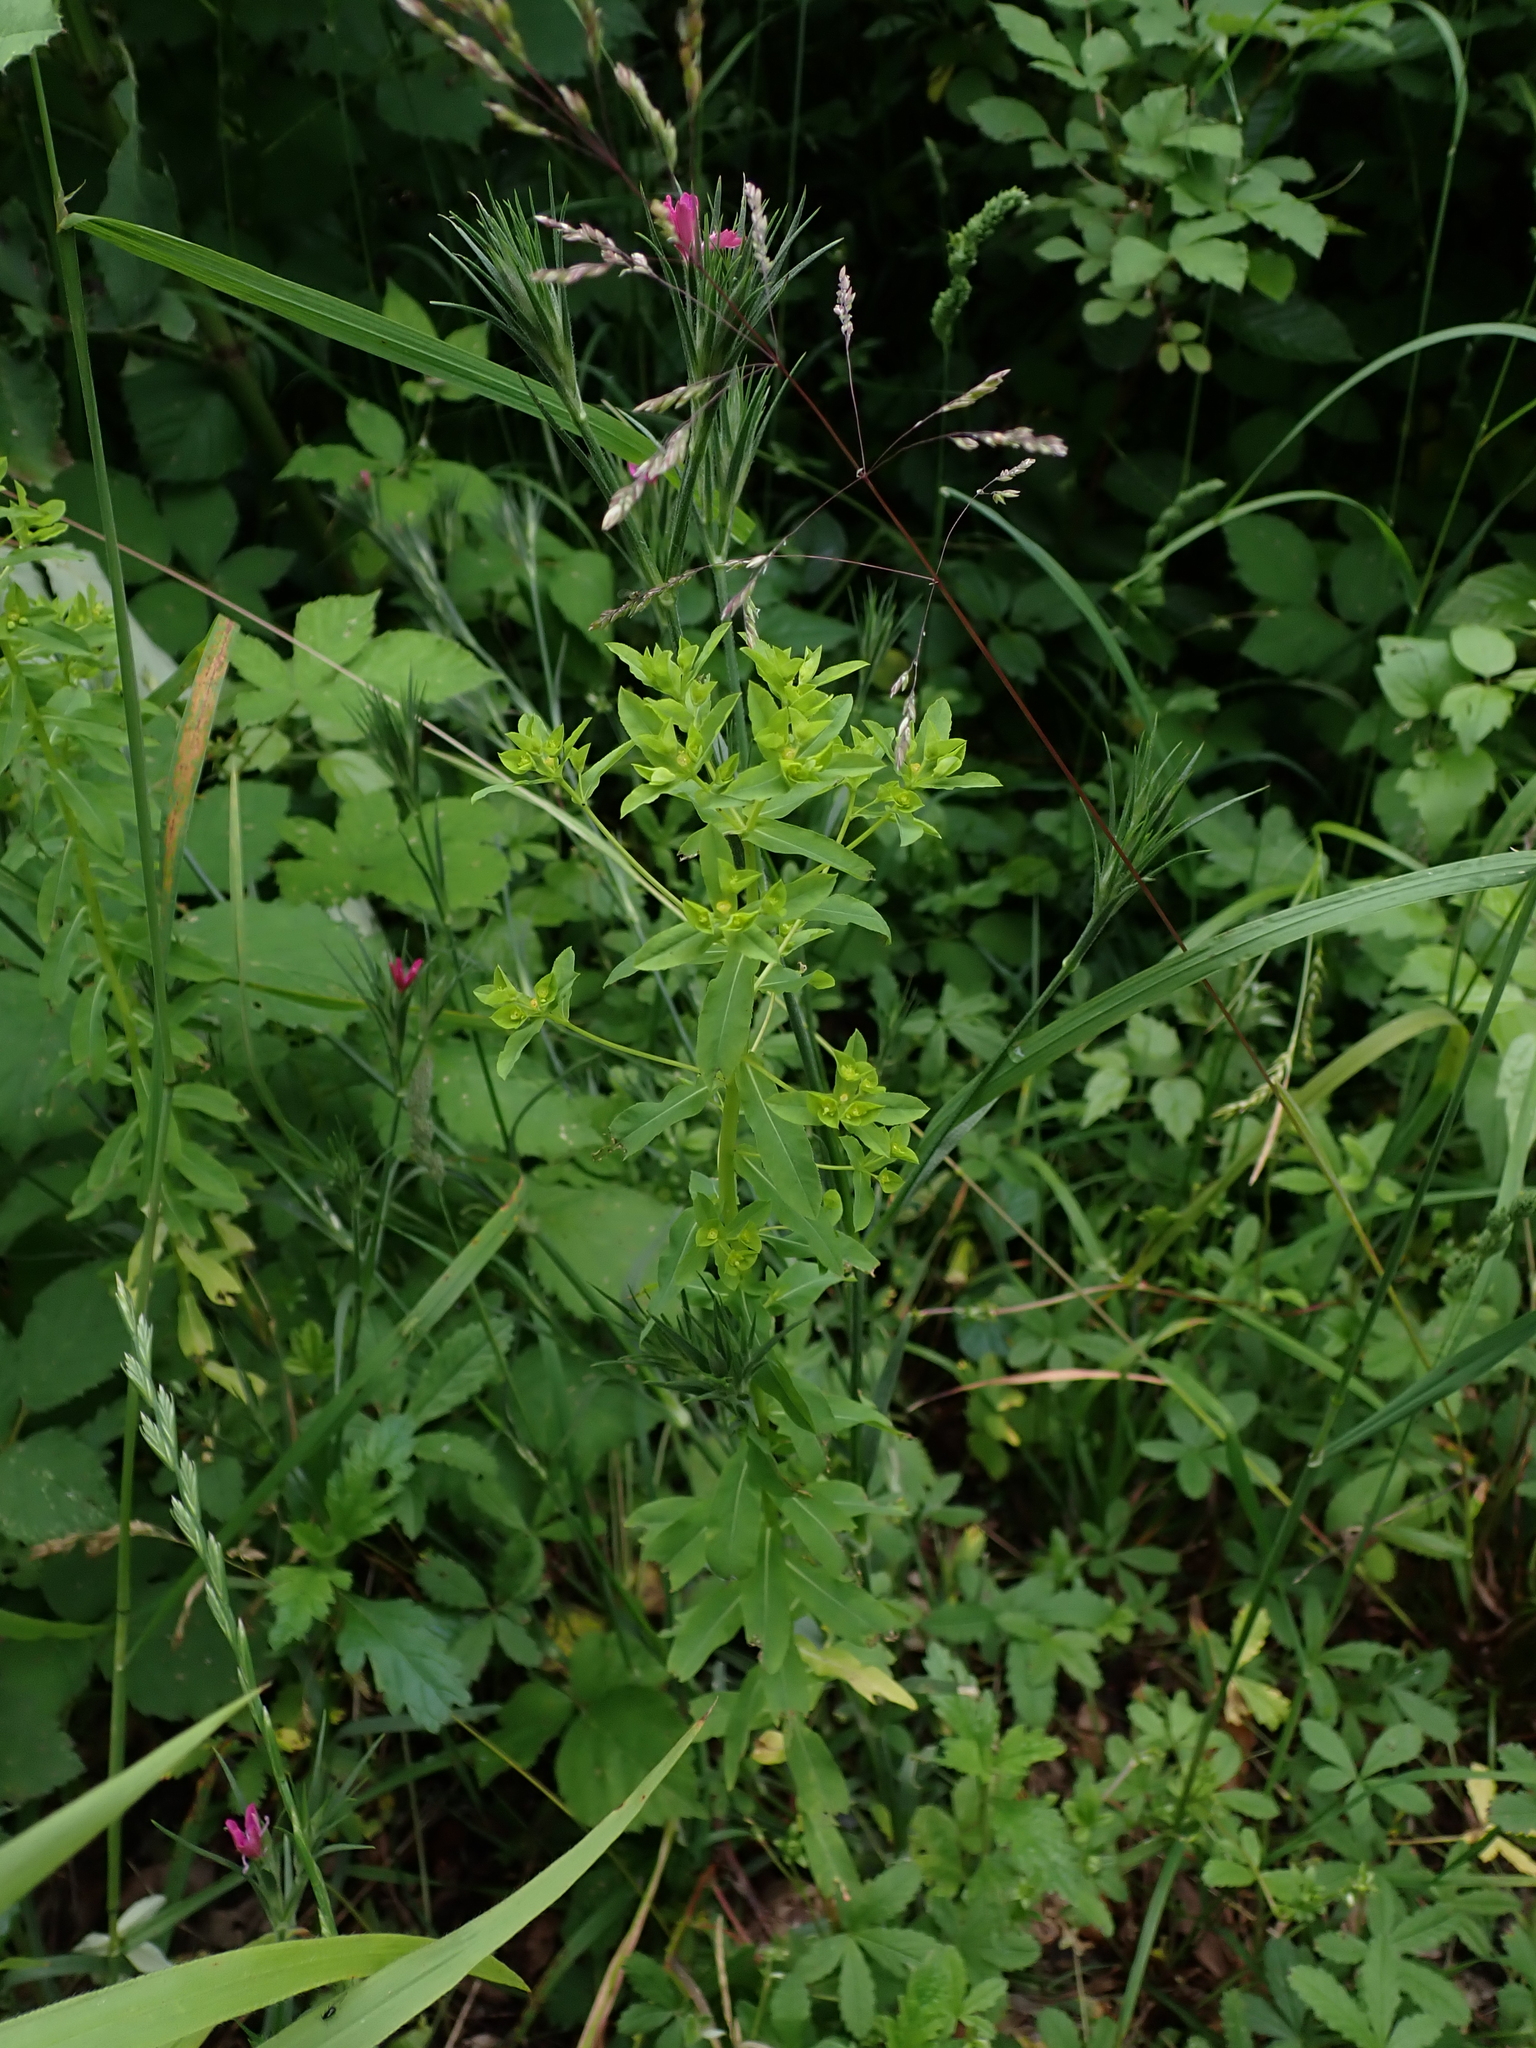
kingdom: Plantae
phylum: Tracheophyta
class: Magnoliopsida
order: Malpighiales
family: Euphorbiaceae
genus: Euphorbia
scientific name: Euphorbia stricta
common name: Upright spurge
